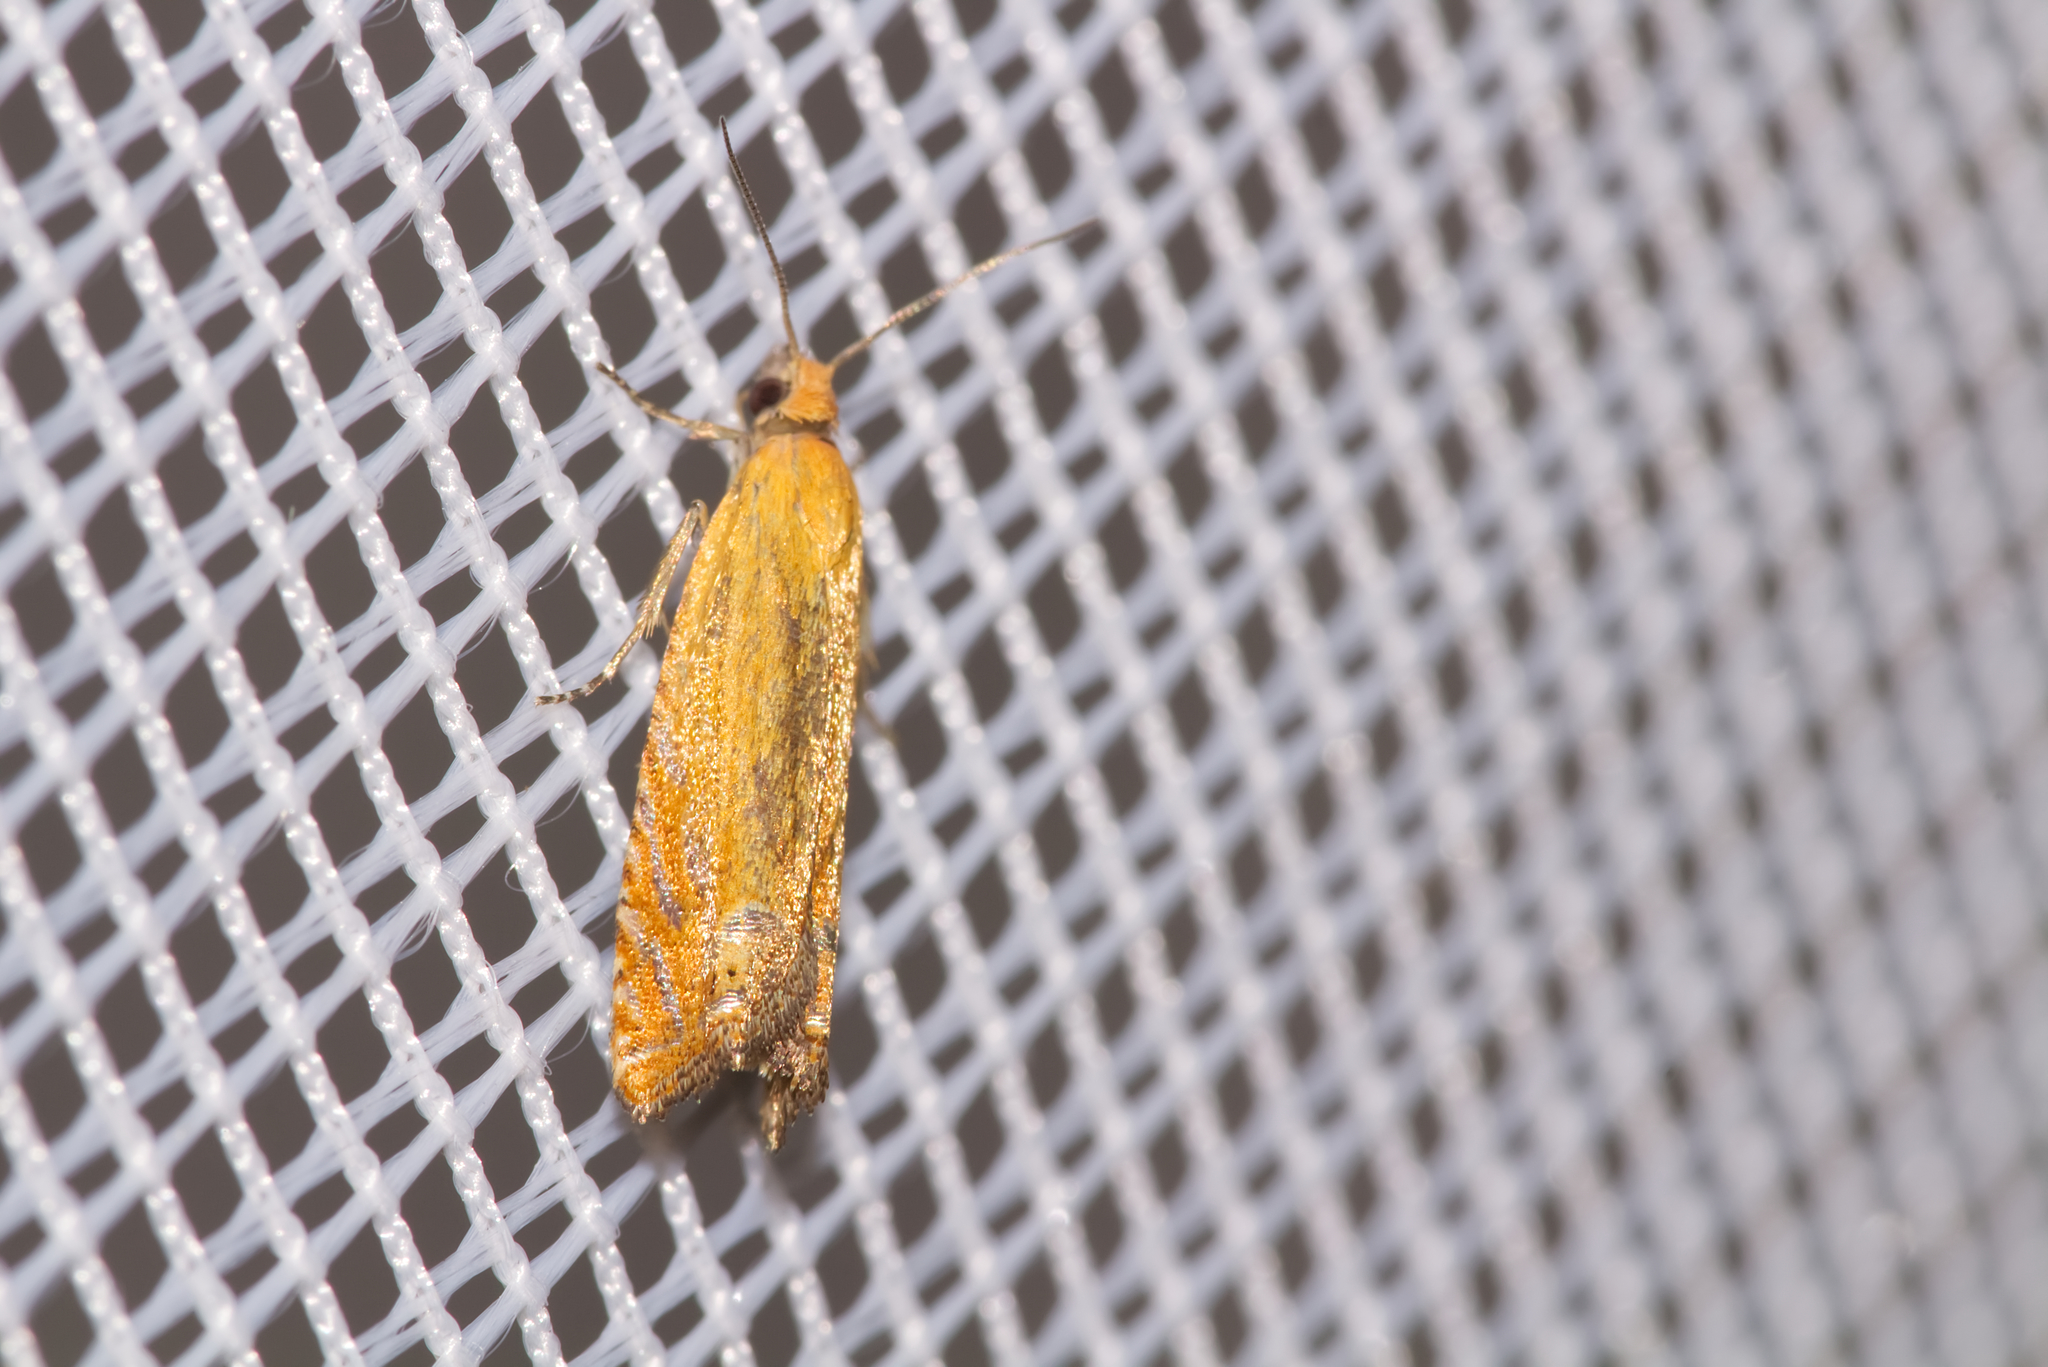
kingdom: Animalia
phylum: Arthropoda
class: Insecta
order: Lepidoptera
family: Tortricidae
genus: Lathronympha
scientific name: Lathronympha strigana
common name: Red piercer
